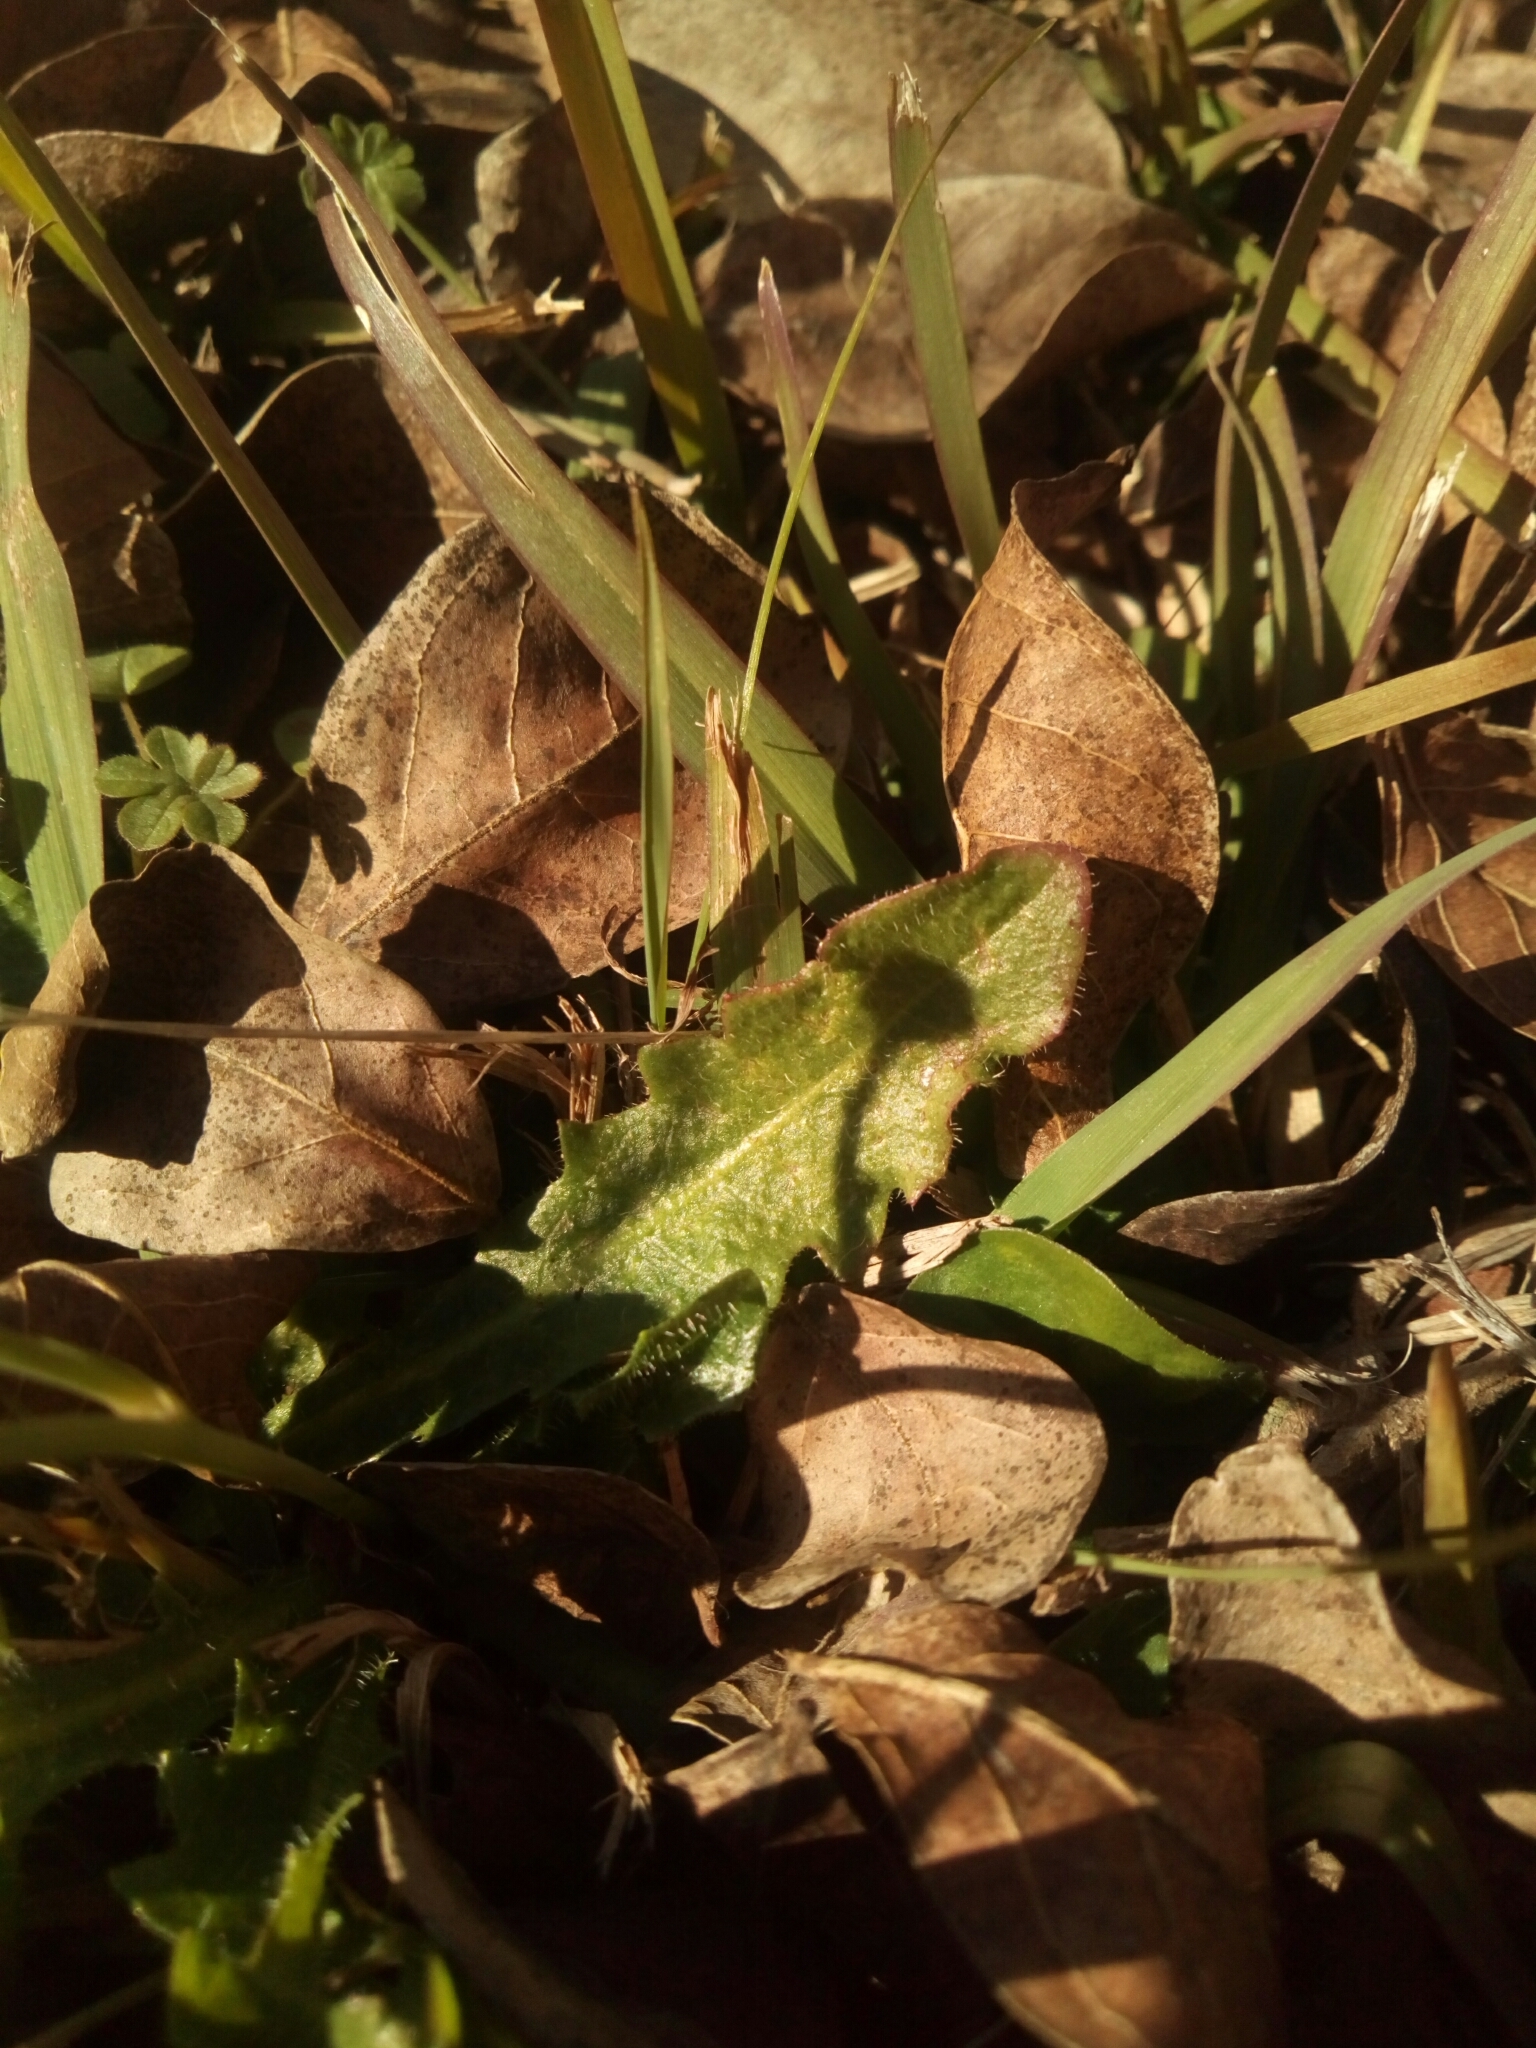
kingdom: Plantae
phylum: Tracheophyta
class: Magnoliopsida
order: Asterales
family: Asteraceae
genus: Hypochaeris
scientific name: Hypochaeris radicata
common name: Flatweed
